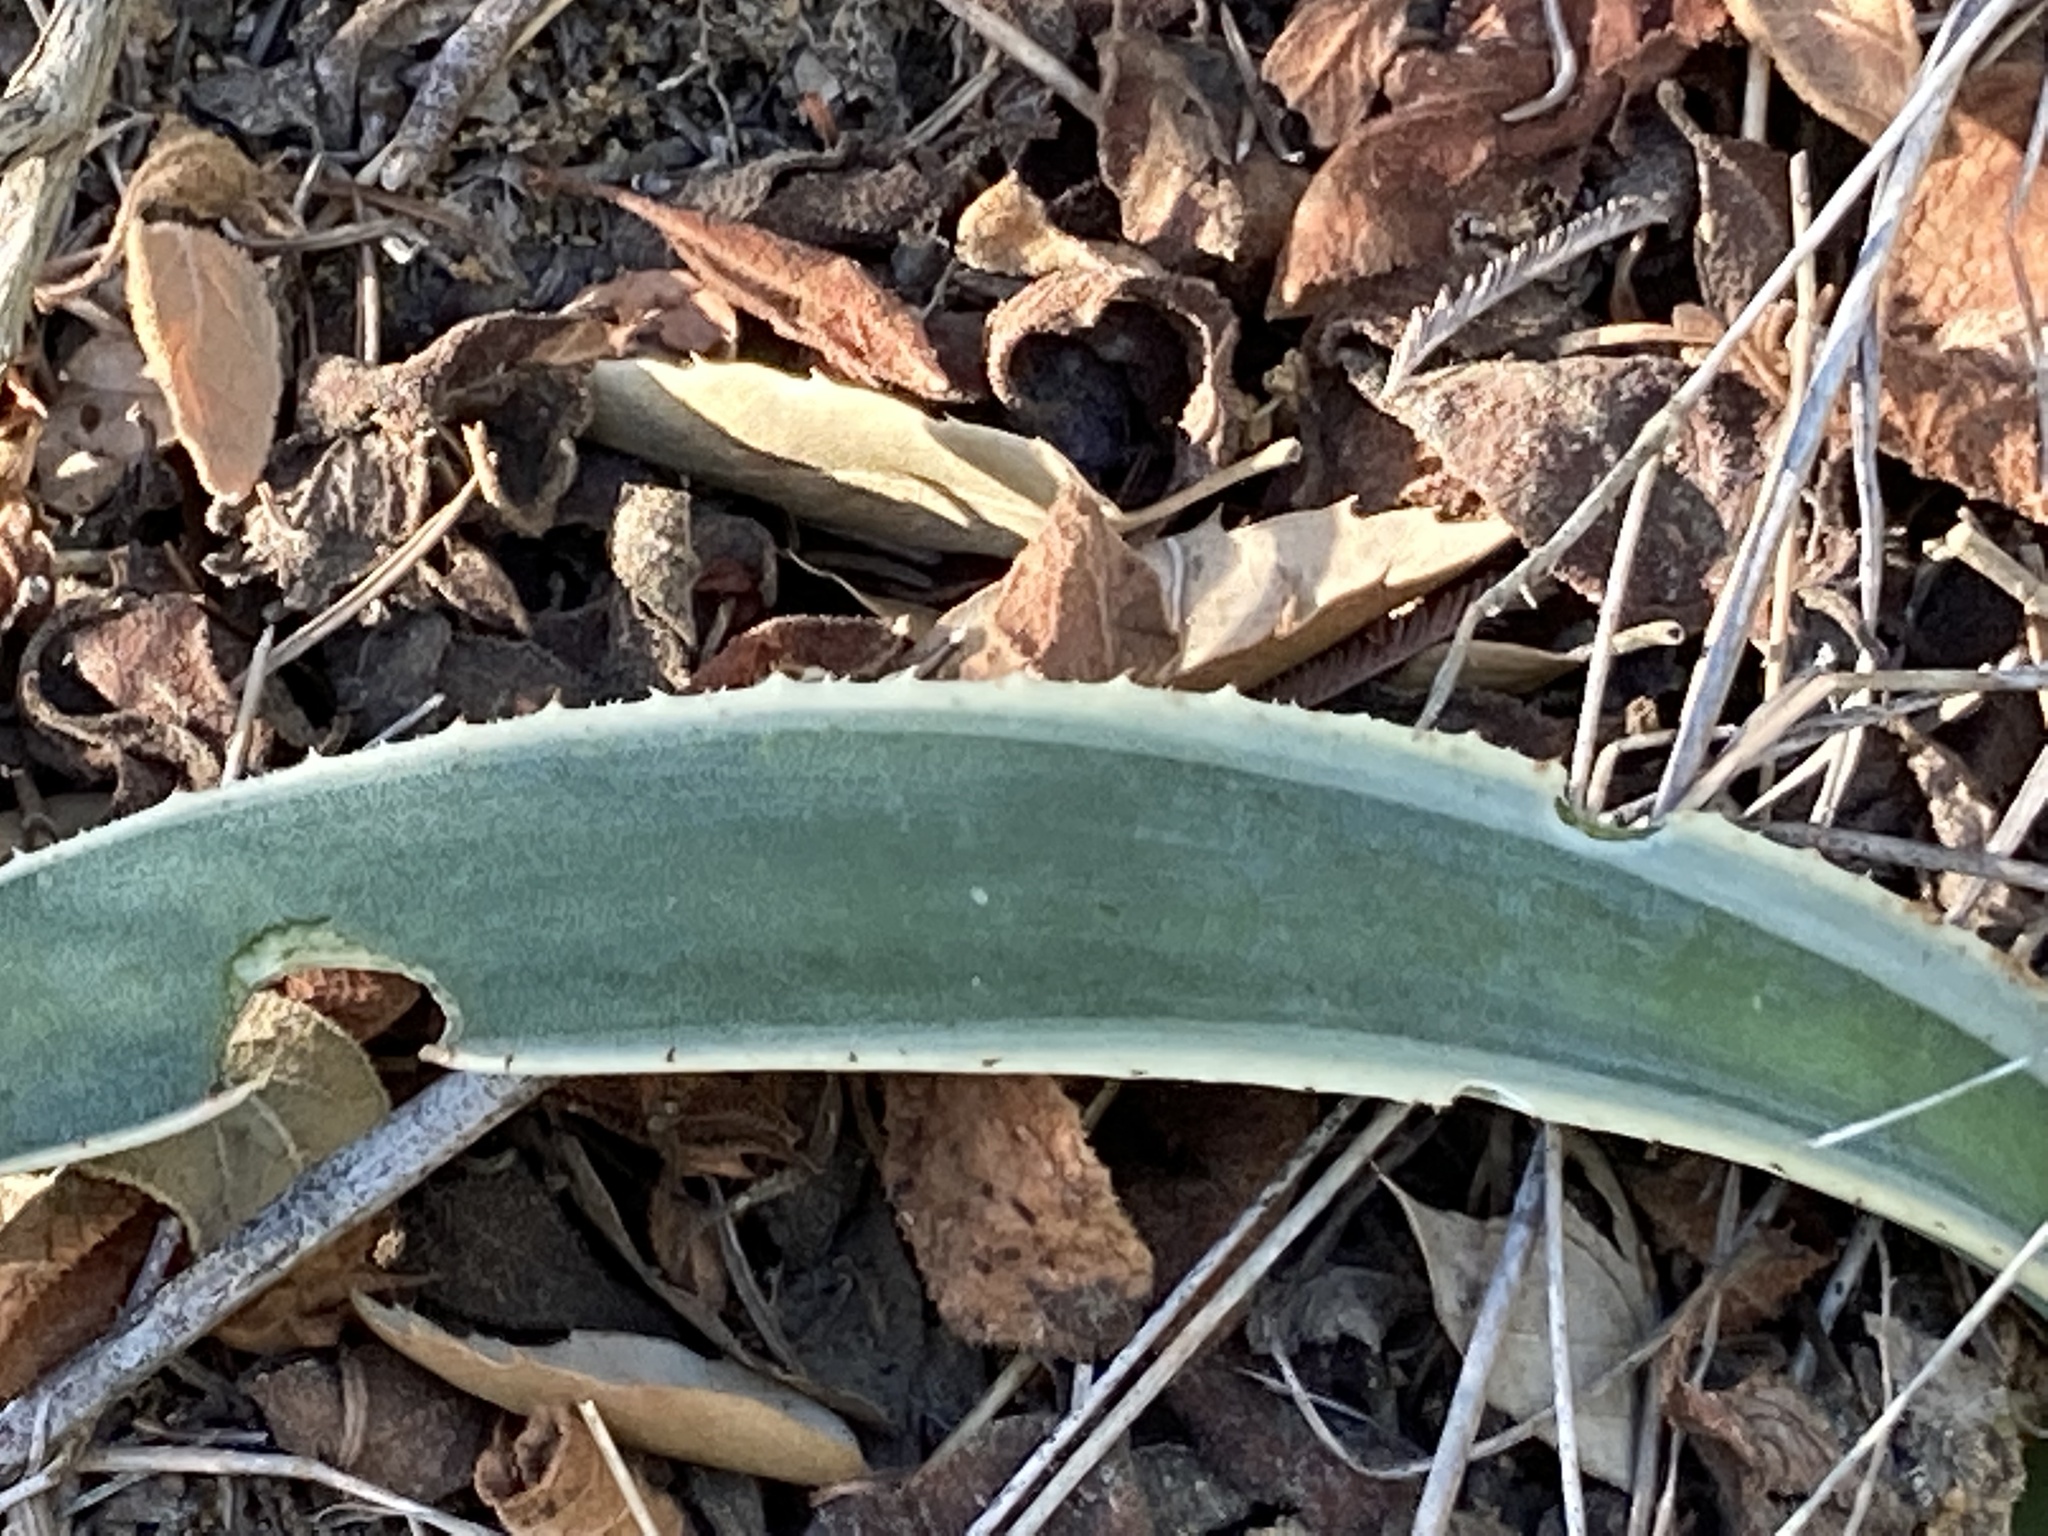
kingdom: Plantae
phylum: Tracheophyta
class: Liliopsida
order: Asparagales
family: Asparagaceae
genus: Agave
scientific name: Agave americana
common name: Centuryplant
